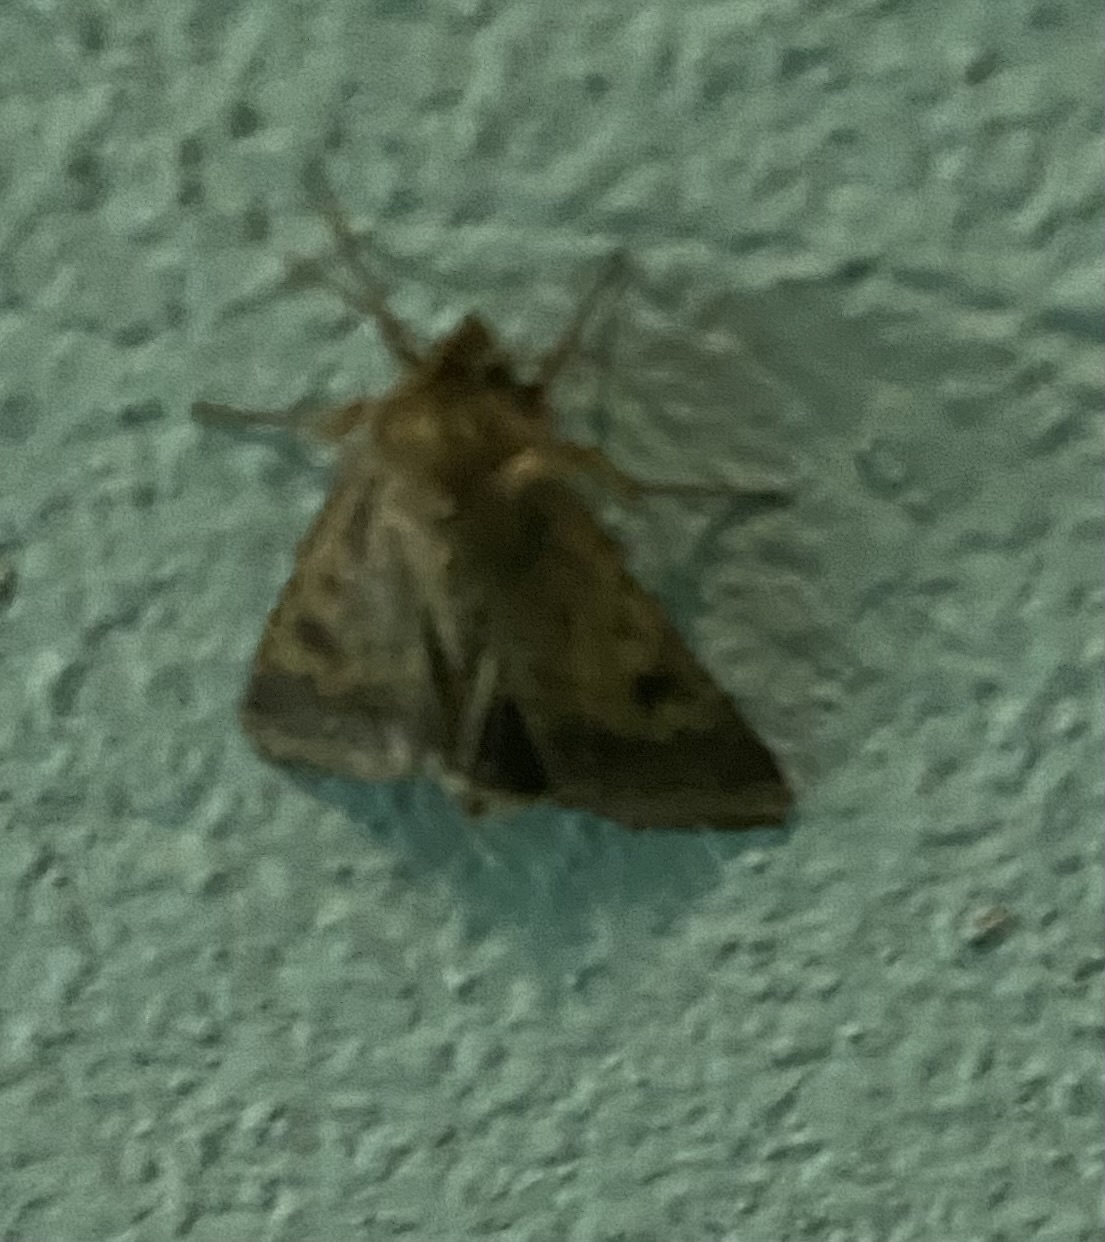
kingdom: Animalia
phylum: Arthropoda
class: Insecta
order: Lepidoptera
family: Noctuidae
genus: Helicoverpa
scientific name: Helicoverpa armigera
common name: Cotton bollworm
